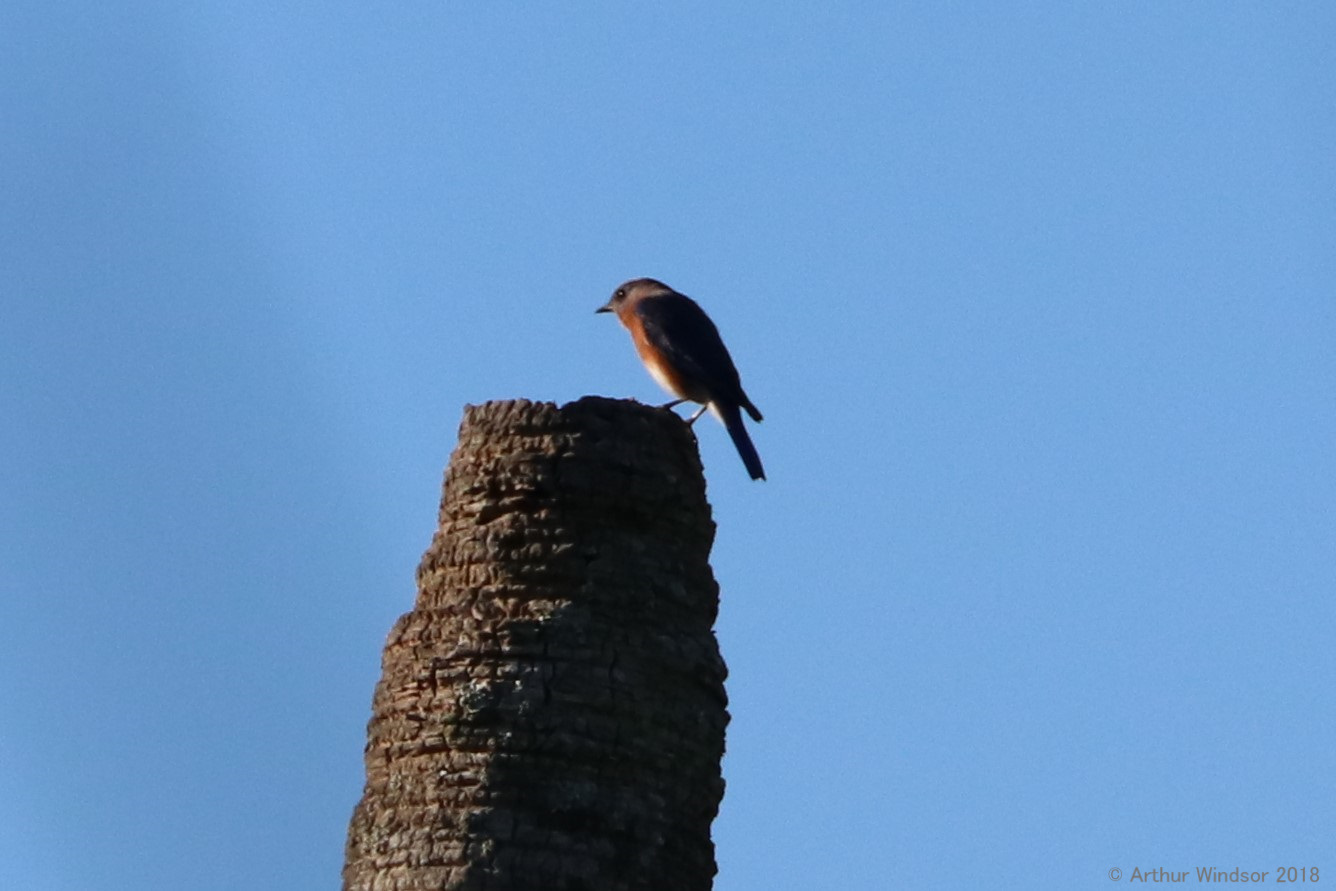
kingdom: Animalia
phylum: Chordata
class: Aves
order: Passeriformes
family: Turdidae
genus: Sialia
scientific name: Sialia sialis
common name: Eastern bluebird
